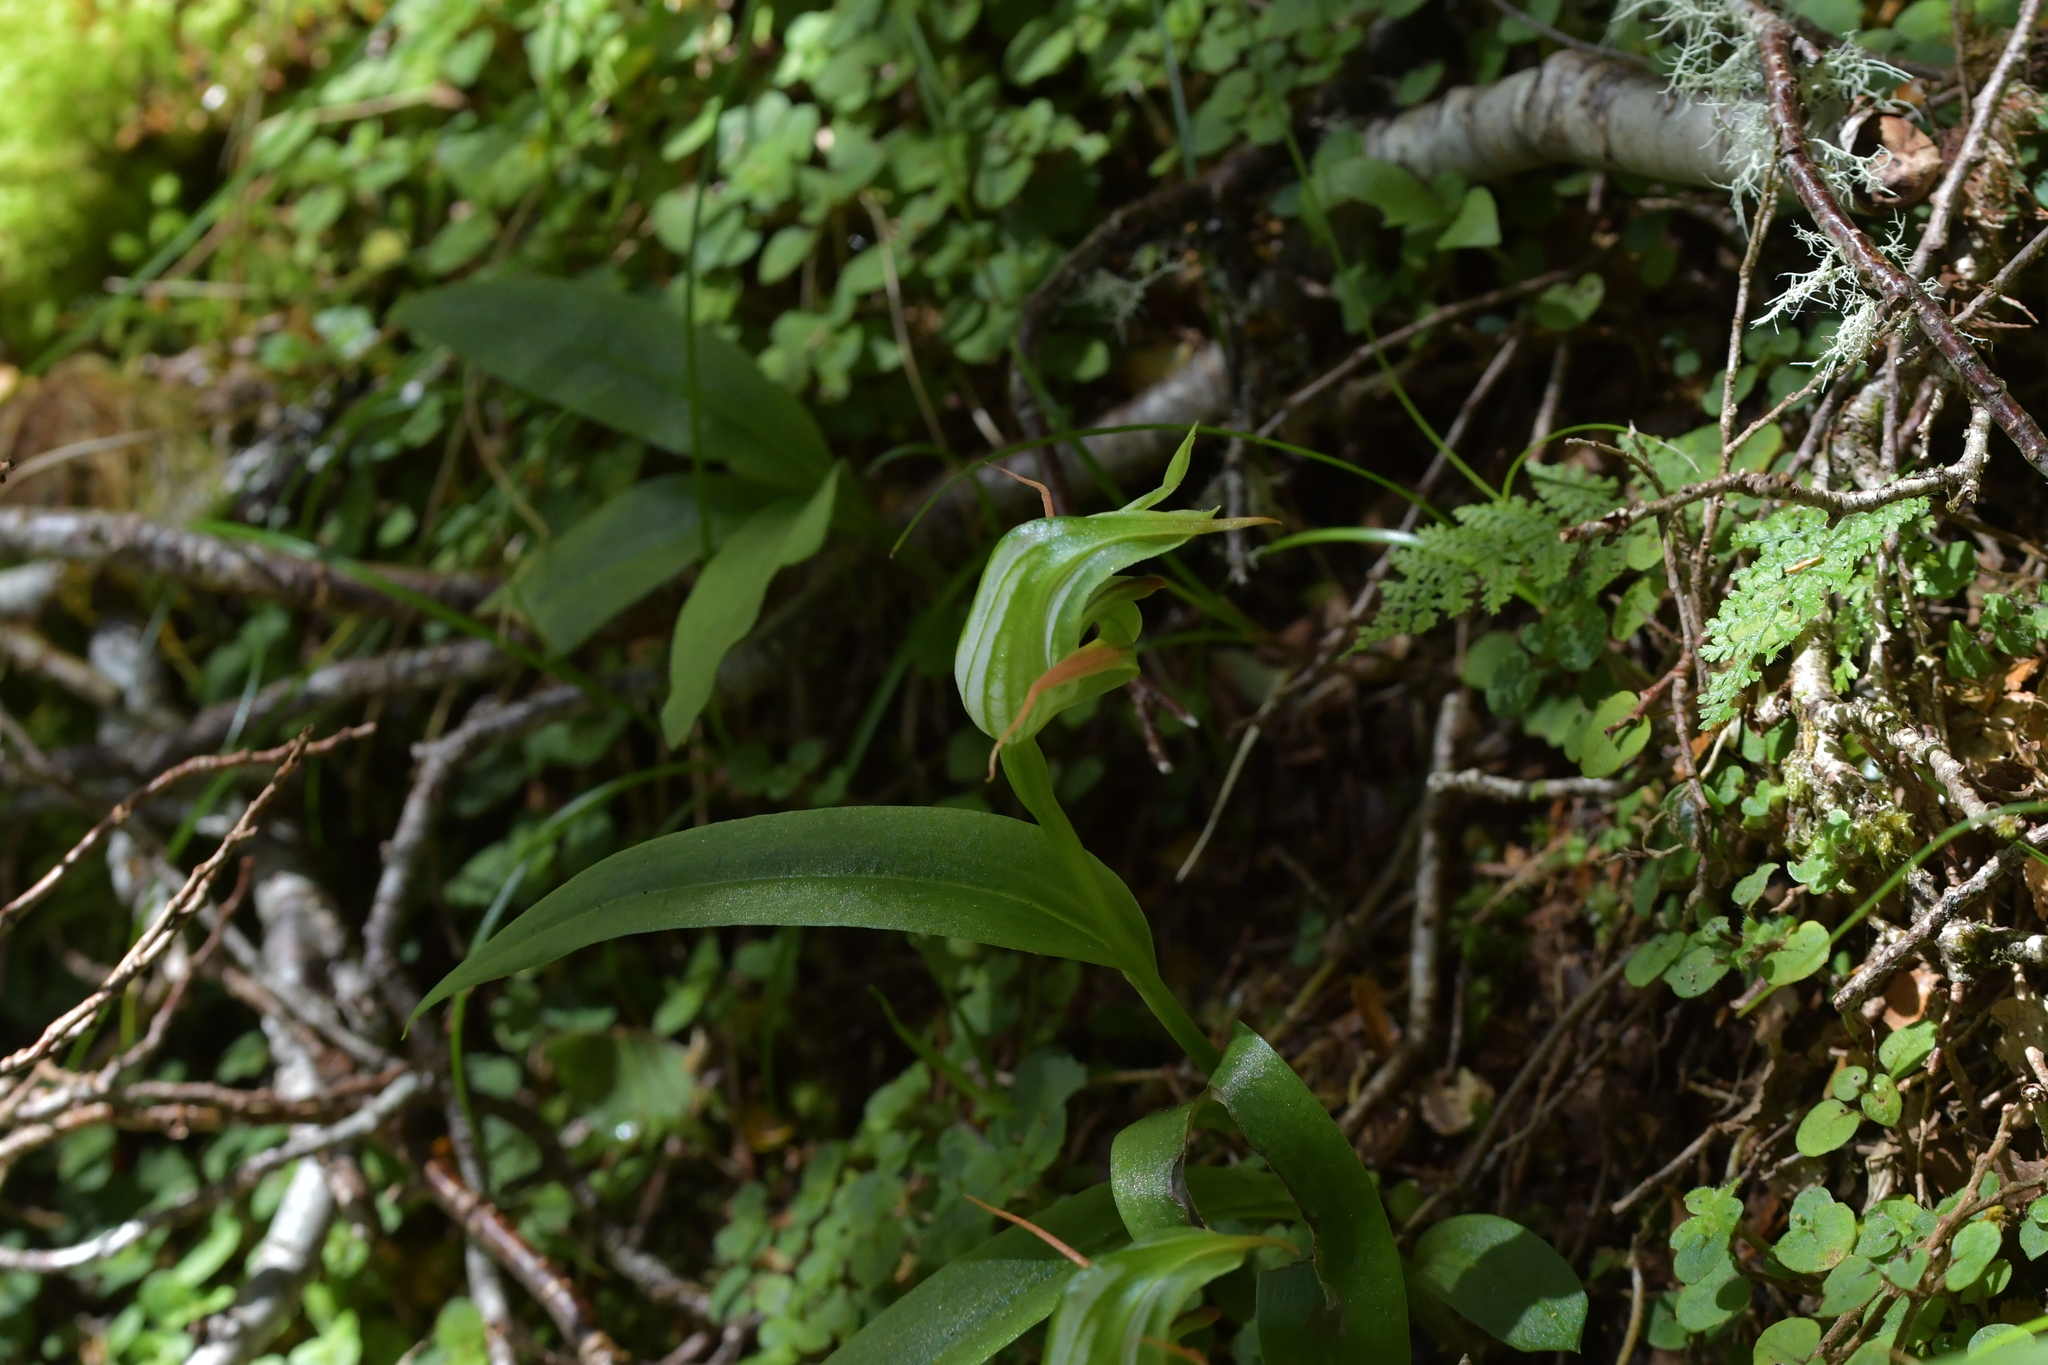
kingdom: Plantae
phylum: Tracheophyta
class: Liliopsida
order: Asparagales
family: Orchidaceae
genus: Pterostylis
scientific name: Pterostylis australis
